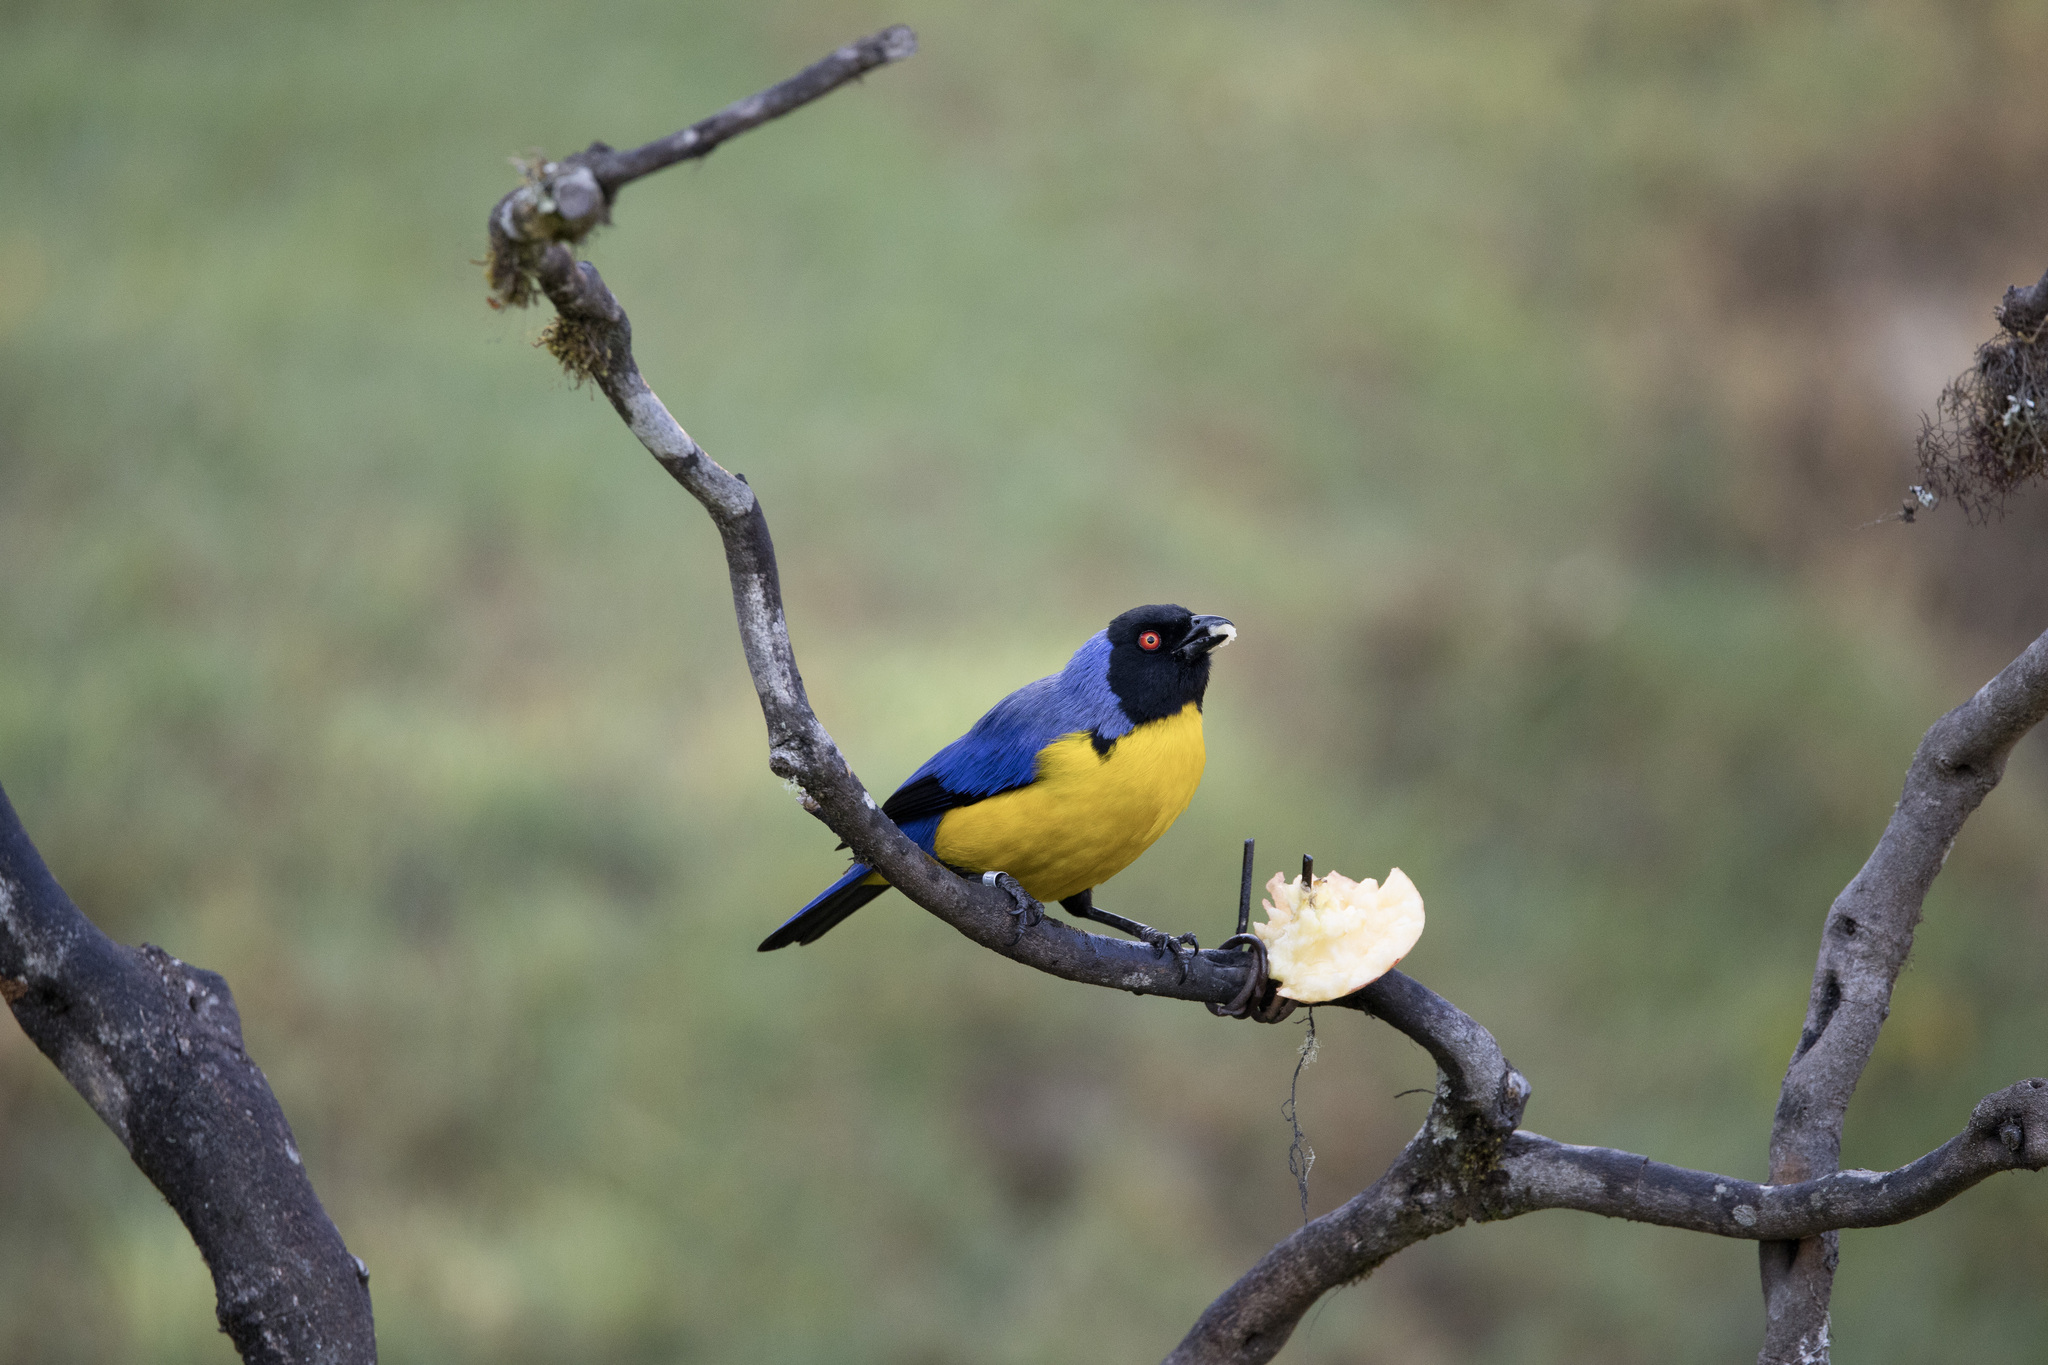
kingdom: Animalia
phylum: Chordata
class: Aves
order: Passeriformes
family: Thraupidae
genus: Buthraupis
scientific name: Buthraupis montana
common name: Hooded mountain tanager
